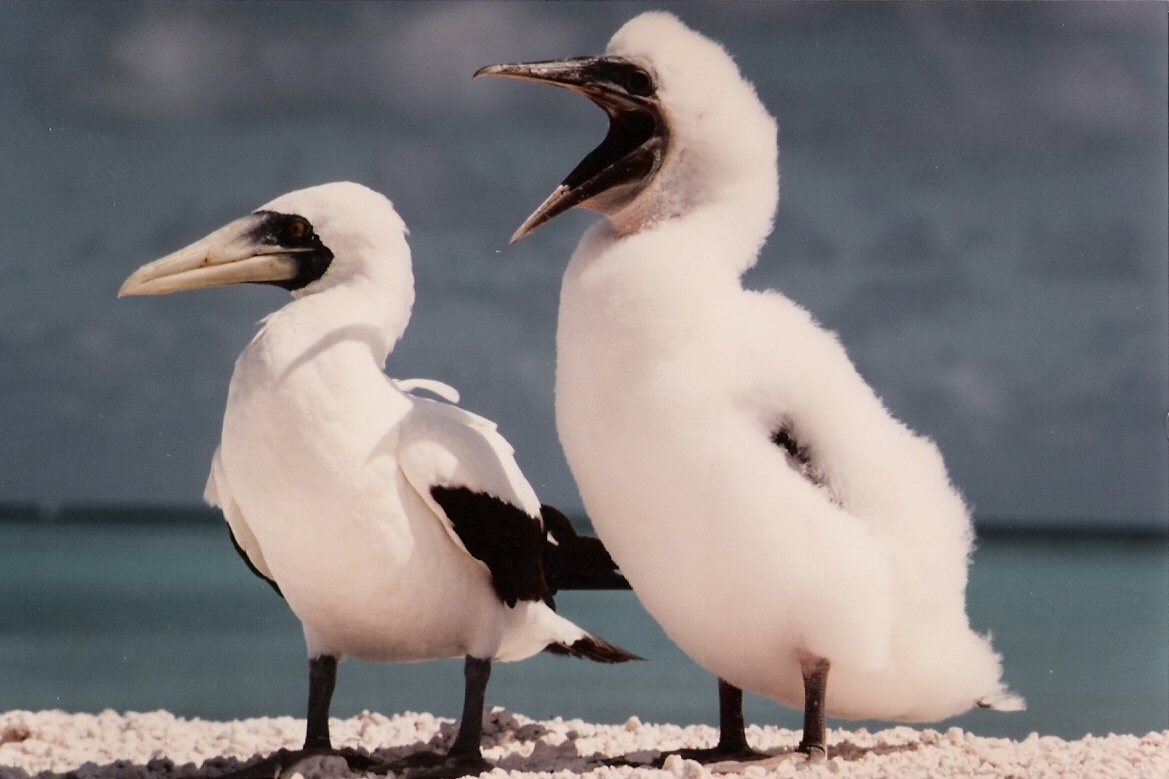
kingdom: Animalia
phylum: Chordata
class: Aves
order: Suliformes
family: Sulidae
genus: Sula
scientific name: Sula dactylatra
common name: Masked booby
